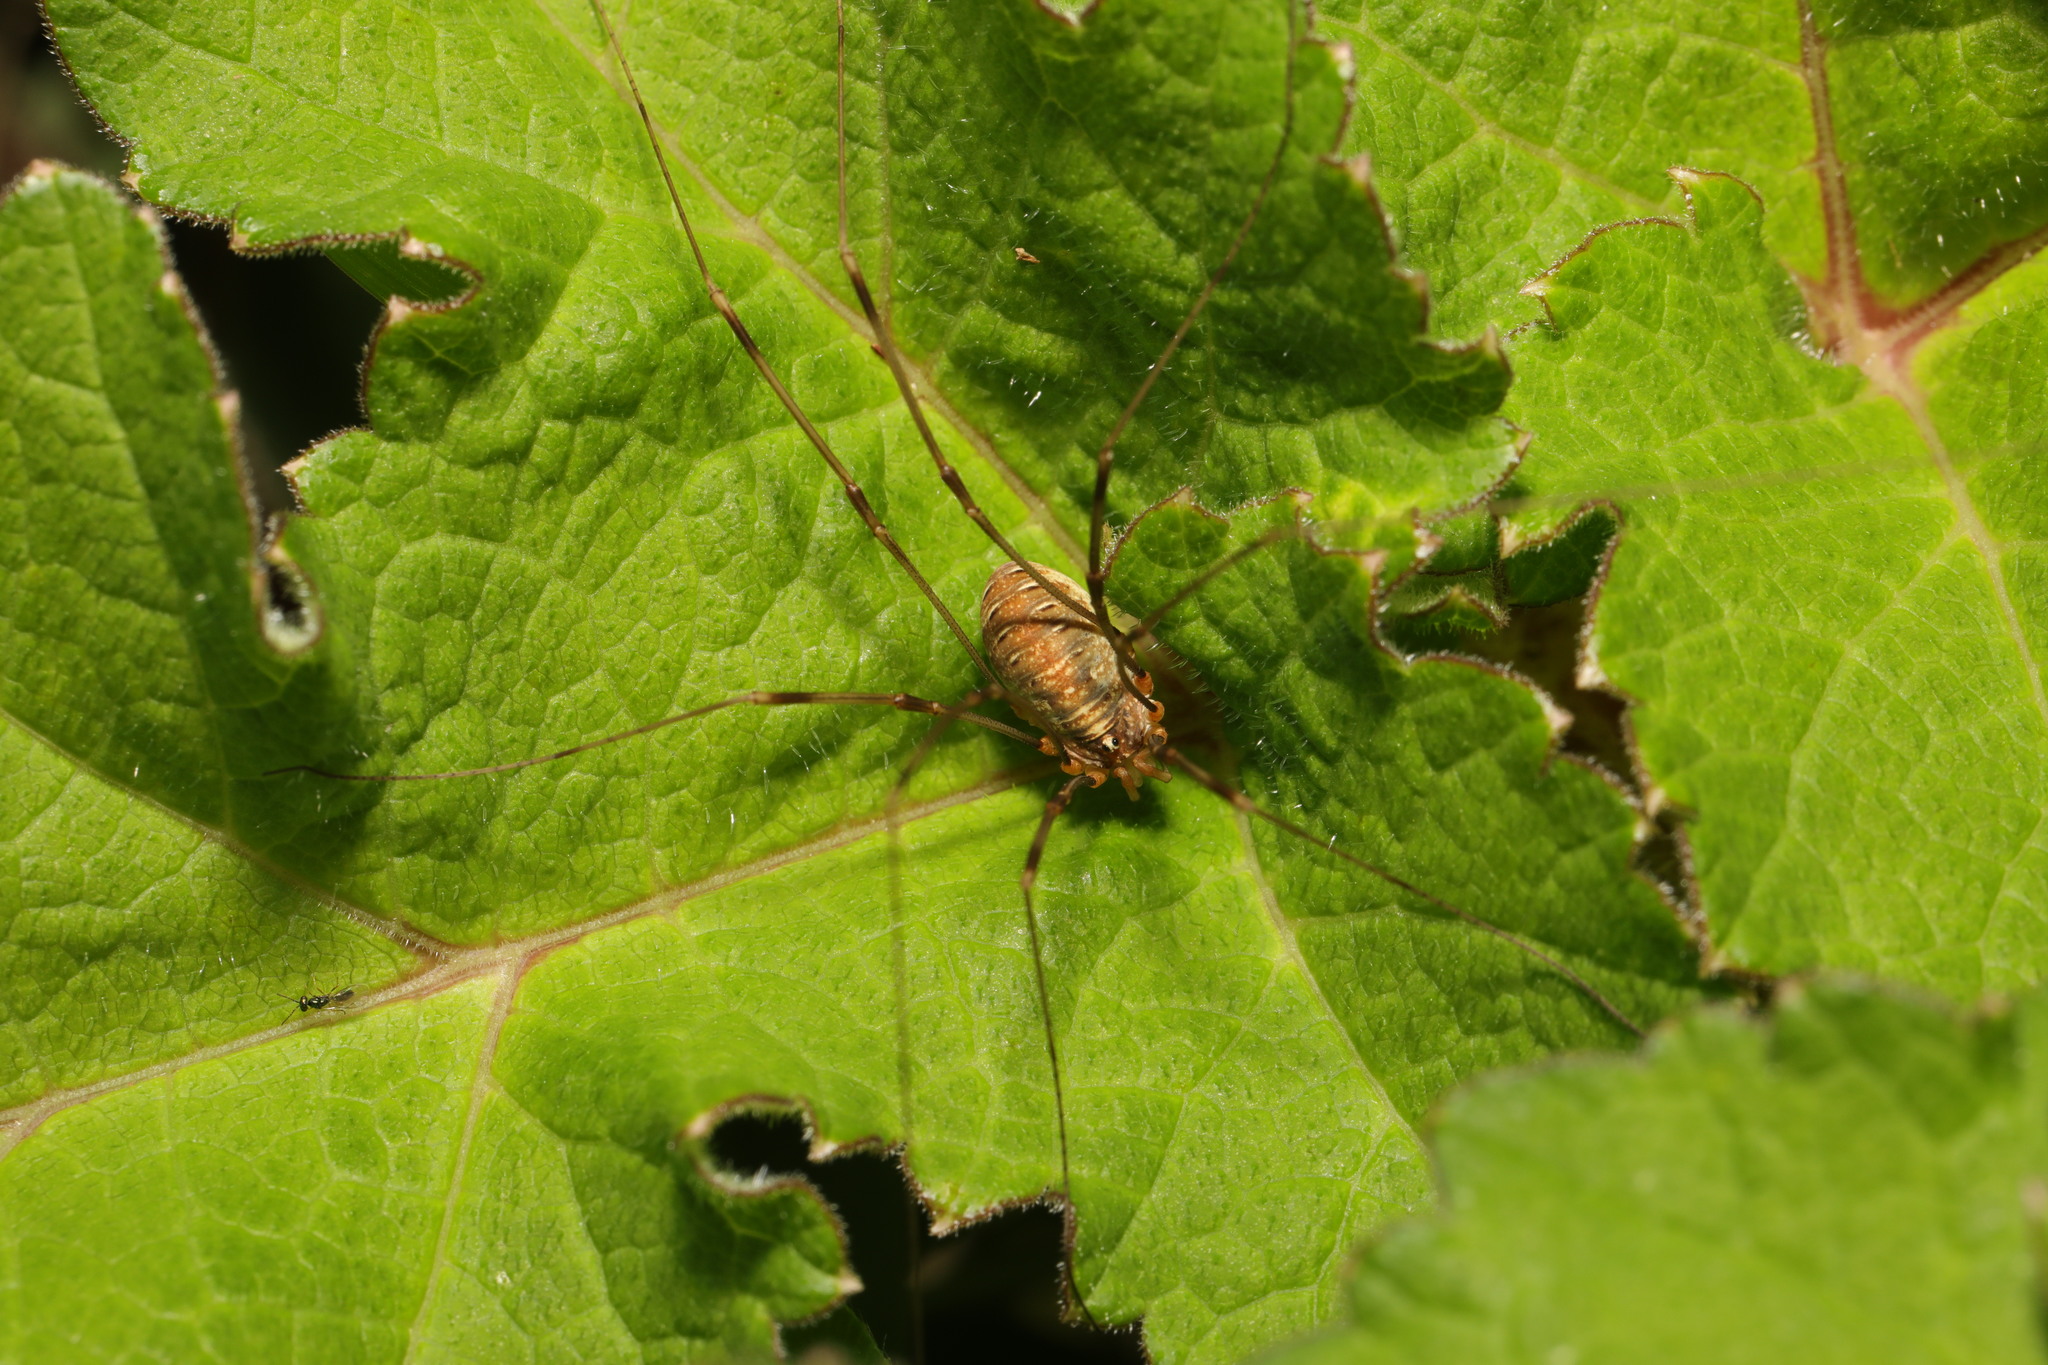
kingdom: Animalia
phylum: Arthropoda
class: Arachnida
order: Opiliones
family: Phalangiidae
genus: Opilio
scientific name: Opilio canestrinii
